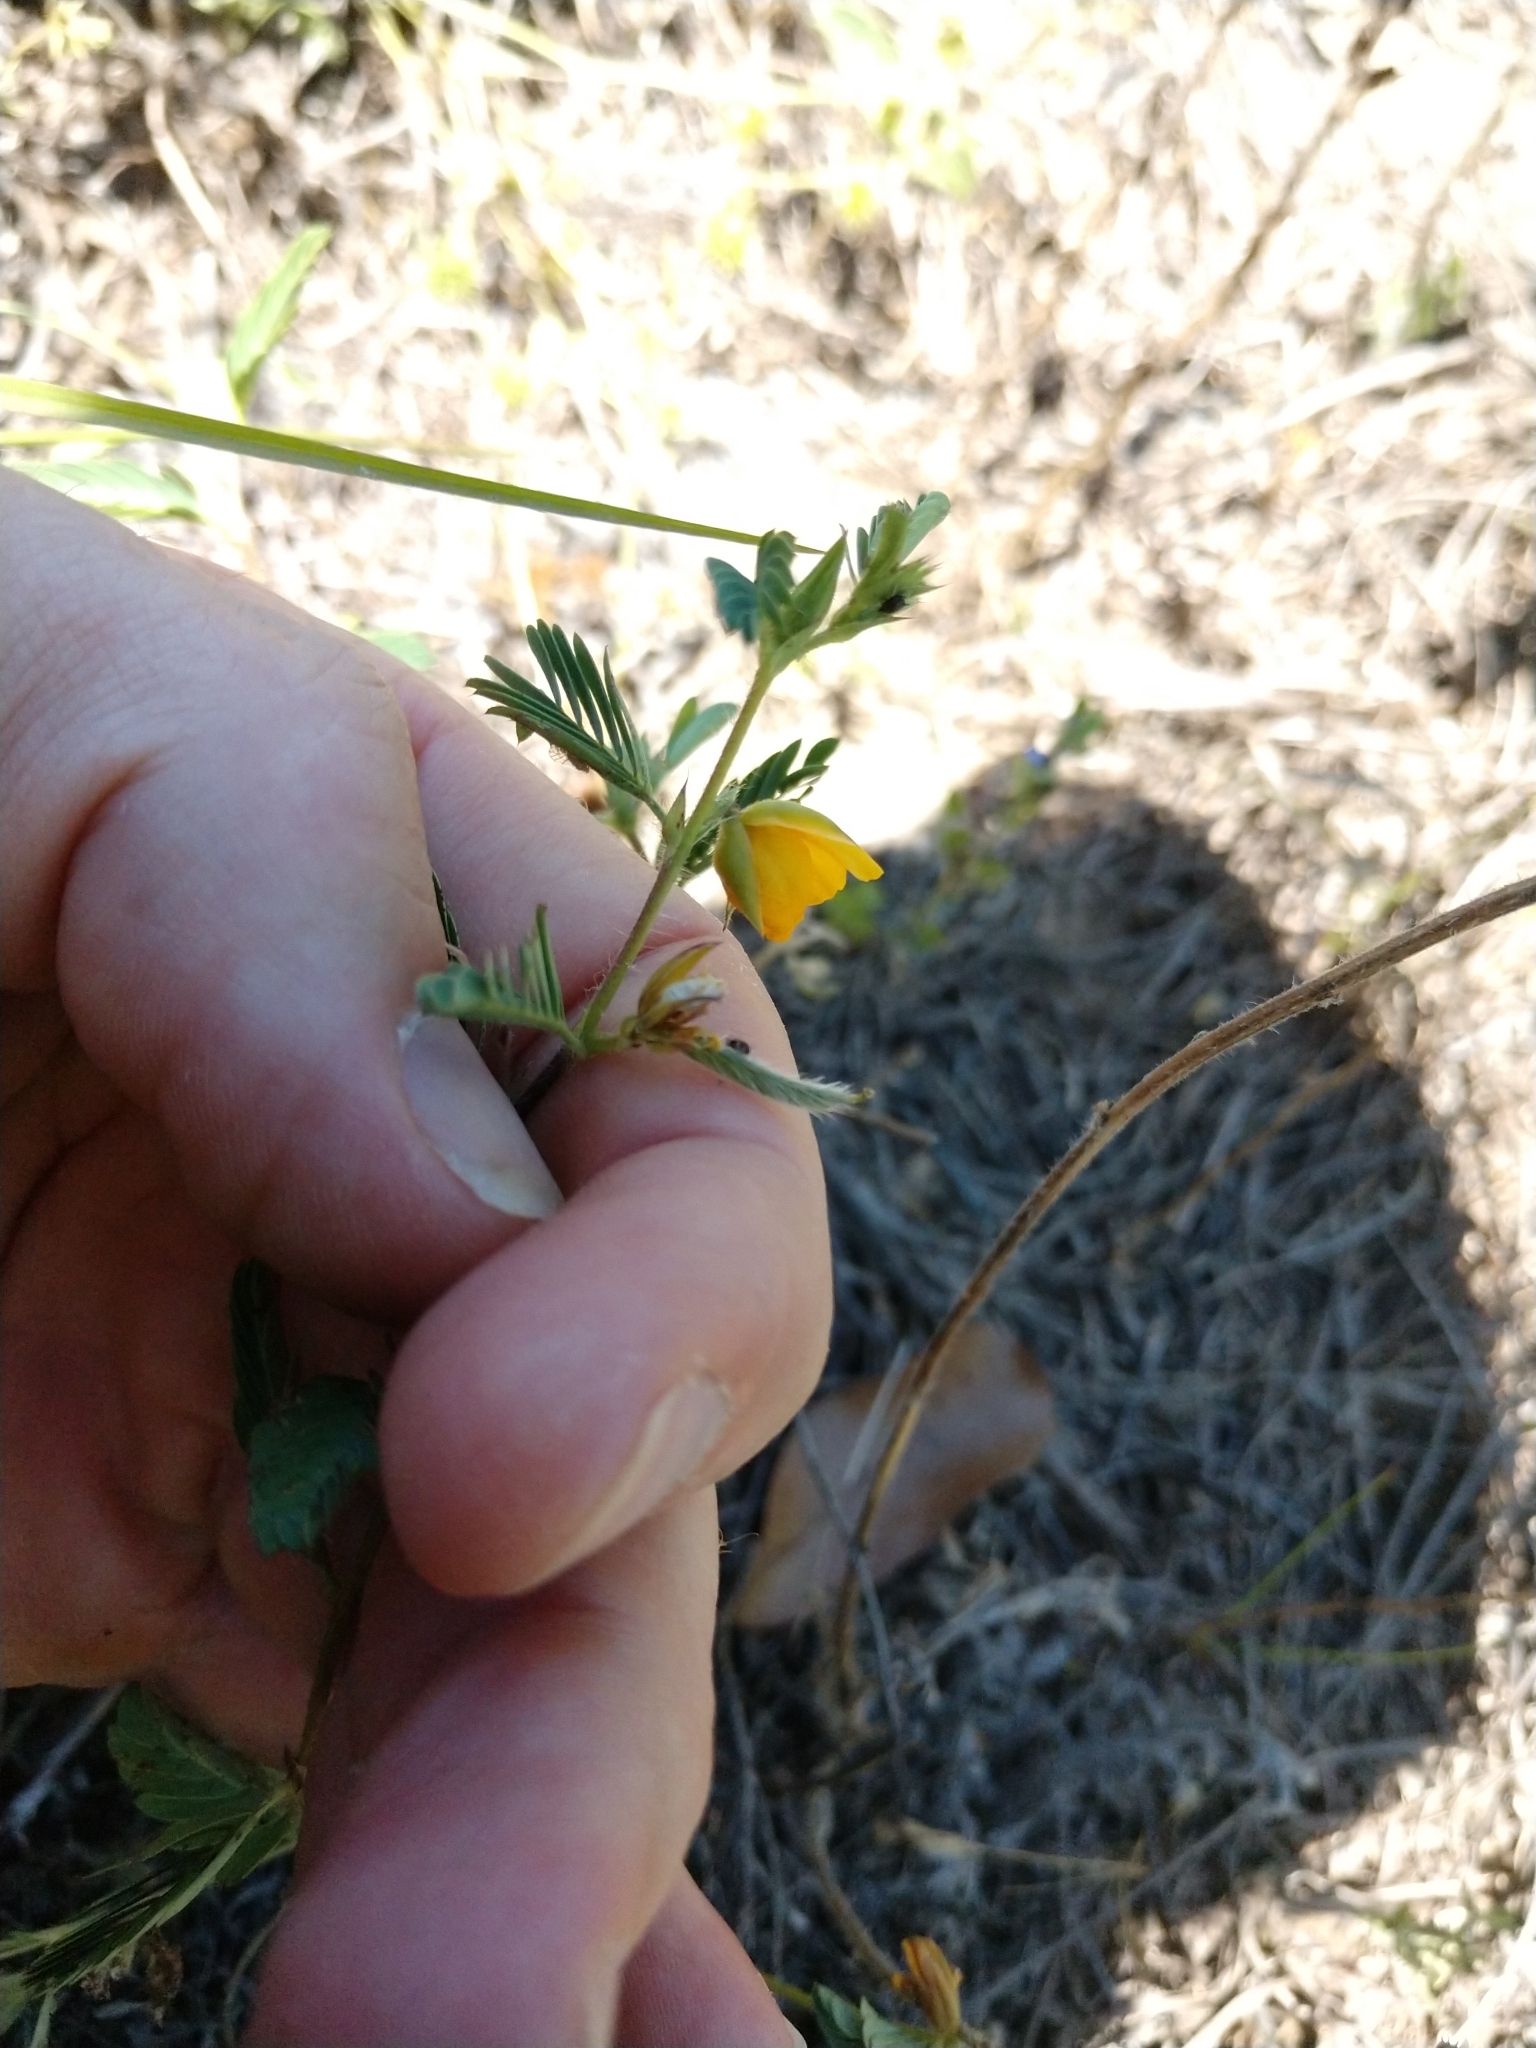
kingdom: Plantae
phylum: Tracheophyta
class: Magnoliopsida
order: Fabales
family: Fabaceae
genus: Chamaecrista
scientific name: Chamaecrista calycioides
